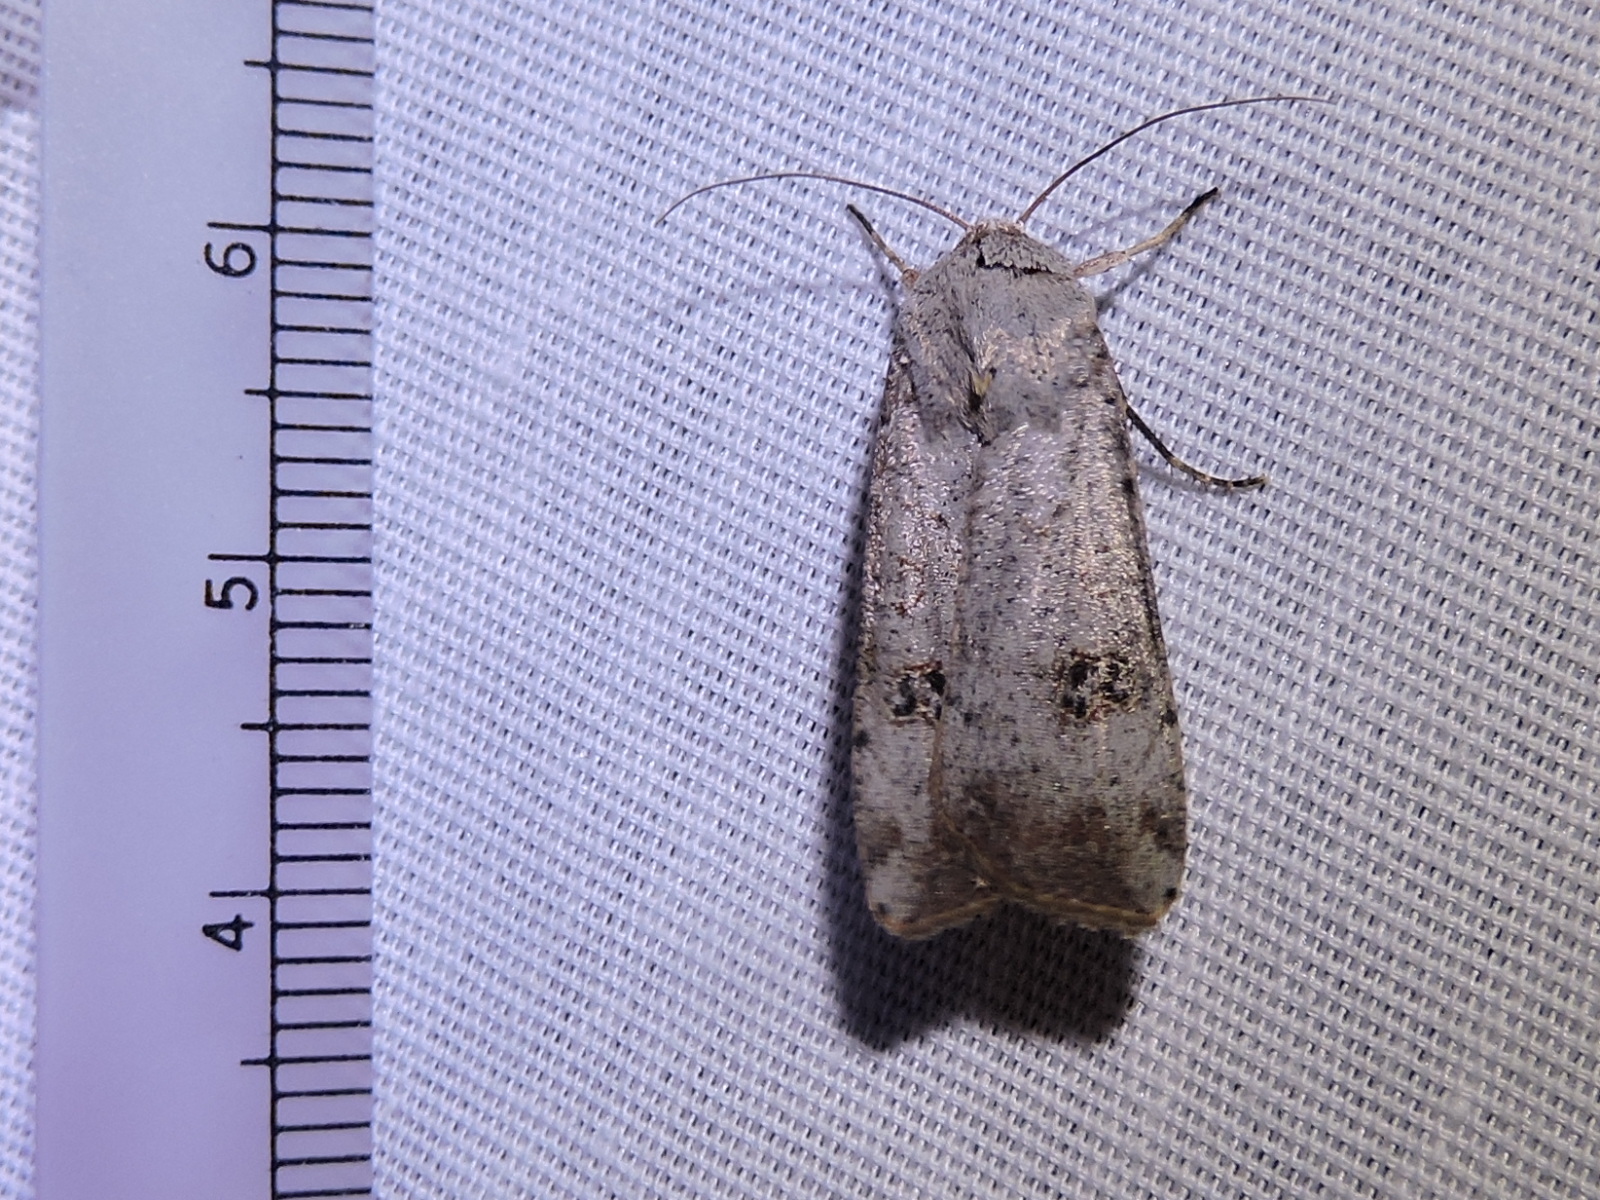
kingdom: Animalia
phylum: Arthropoda
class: Insecta
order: Lepidoptera
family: Noctuidae
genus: Anicla
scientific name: Anicla infecta
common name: Green cutworm
